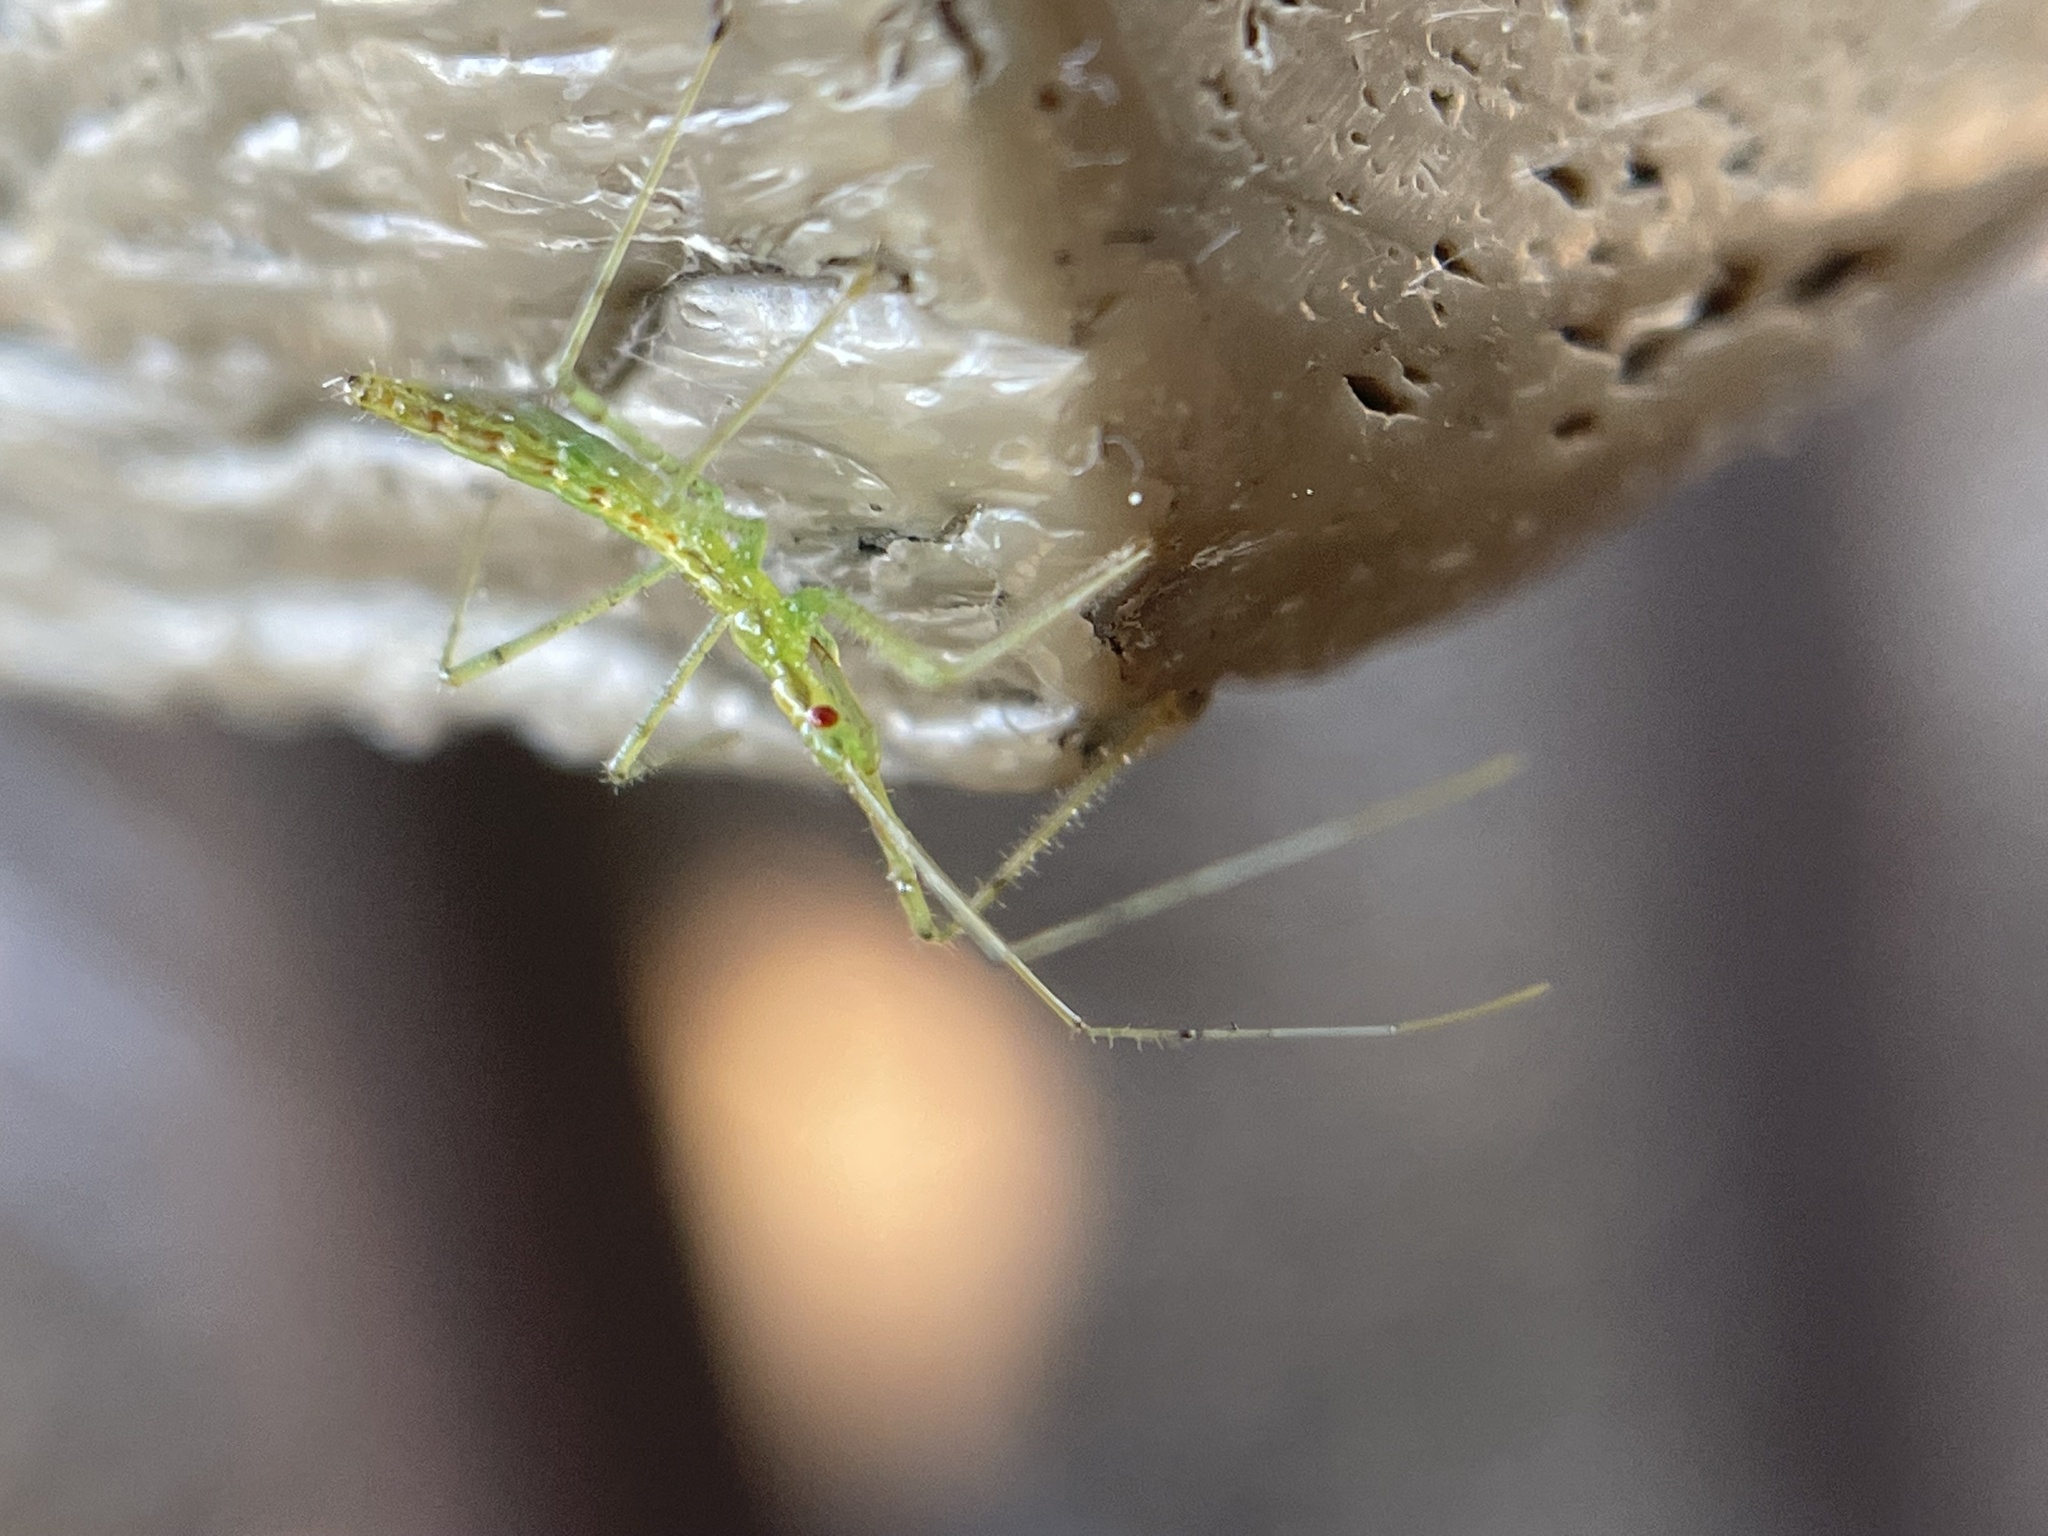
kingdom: Animalia
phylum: Arthropoda
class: Insecta
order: Hemiptera
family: Reduviidae
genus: Zelus
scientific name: Zelus luridus
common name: Pale green assassin bug
